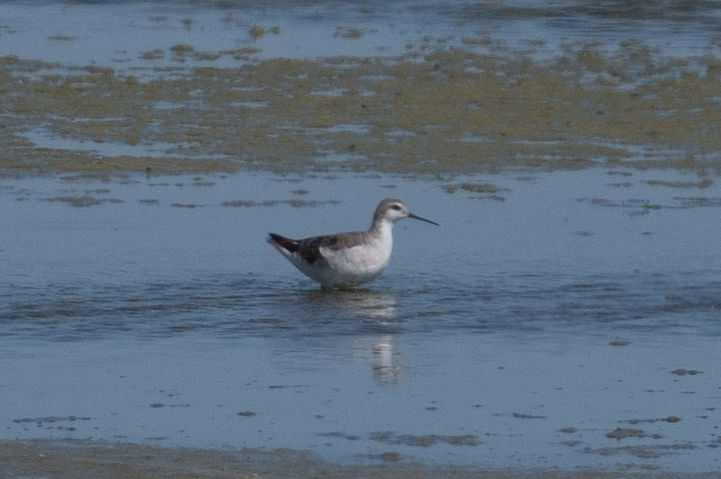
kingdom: Animalia
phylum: Chordata
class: Aves
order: Charadriiformes
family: Scolopacidae
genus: Phalaropus
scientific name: Phalaropus tricolor
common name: Wilson's phalarope
